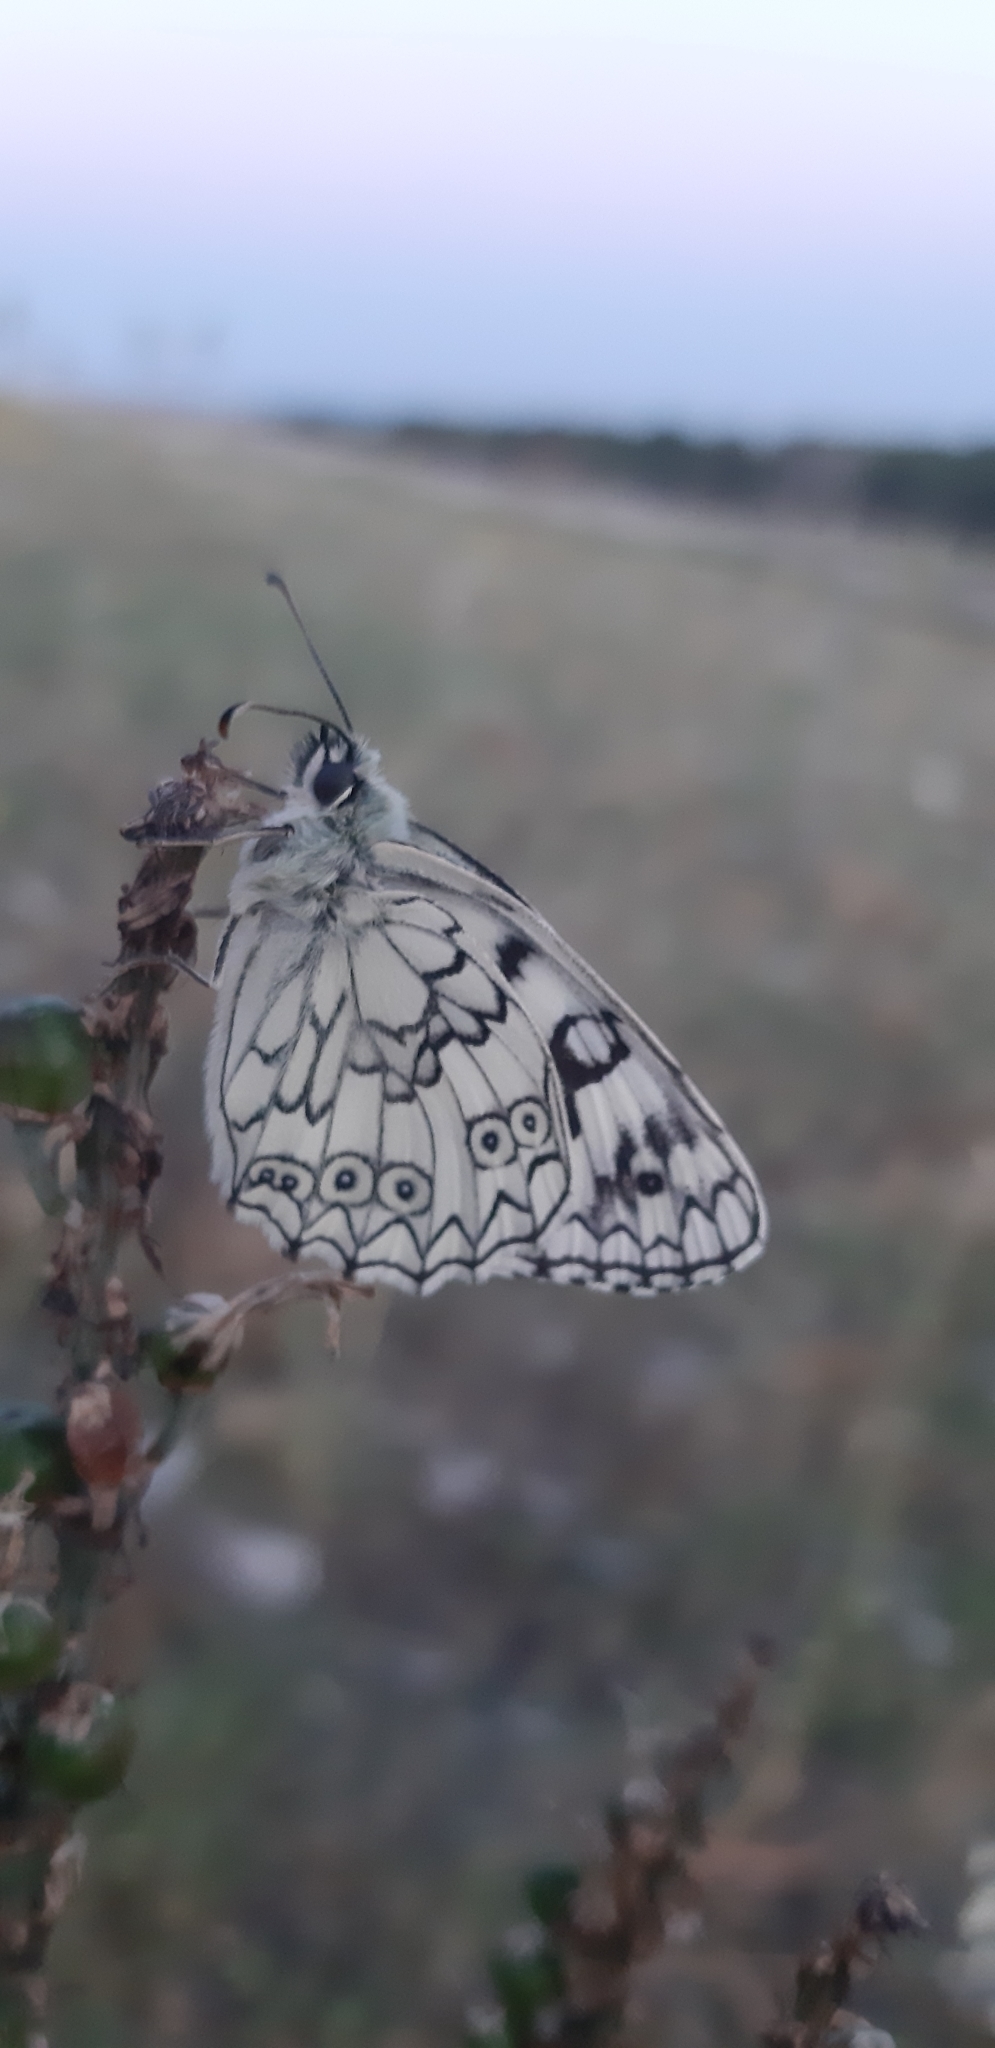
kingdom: Animalia
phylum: Arthropoda
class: Insecta
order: Lepidoptera
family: Nymphalidae
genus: Melanargia
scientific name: Melanargia japygia
